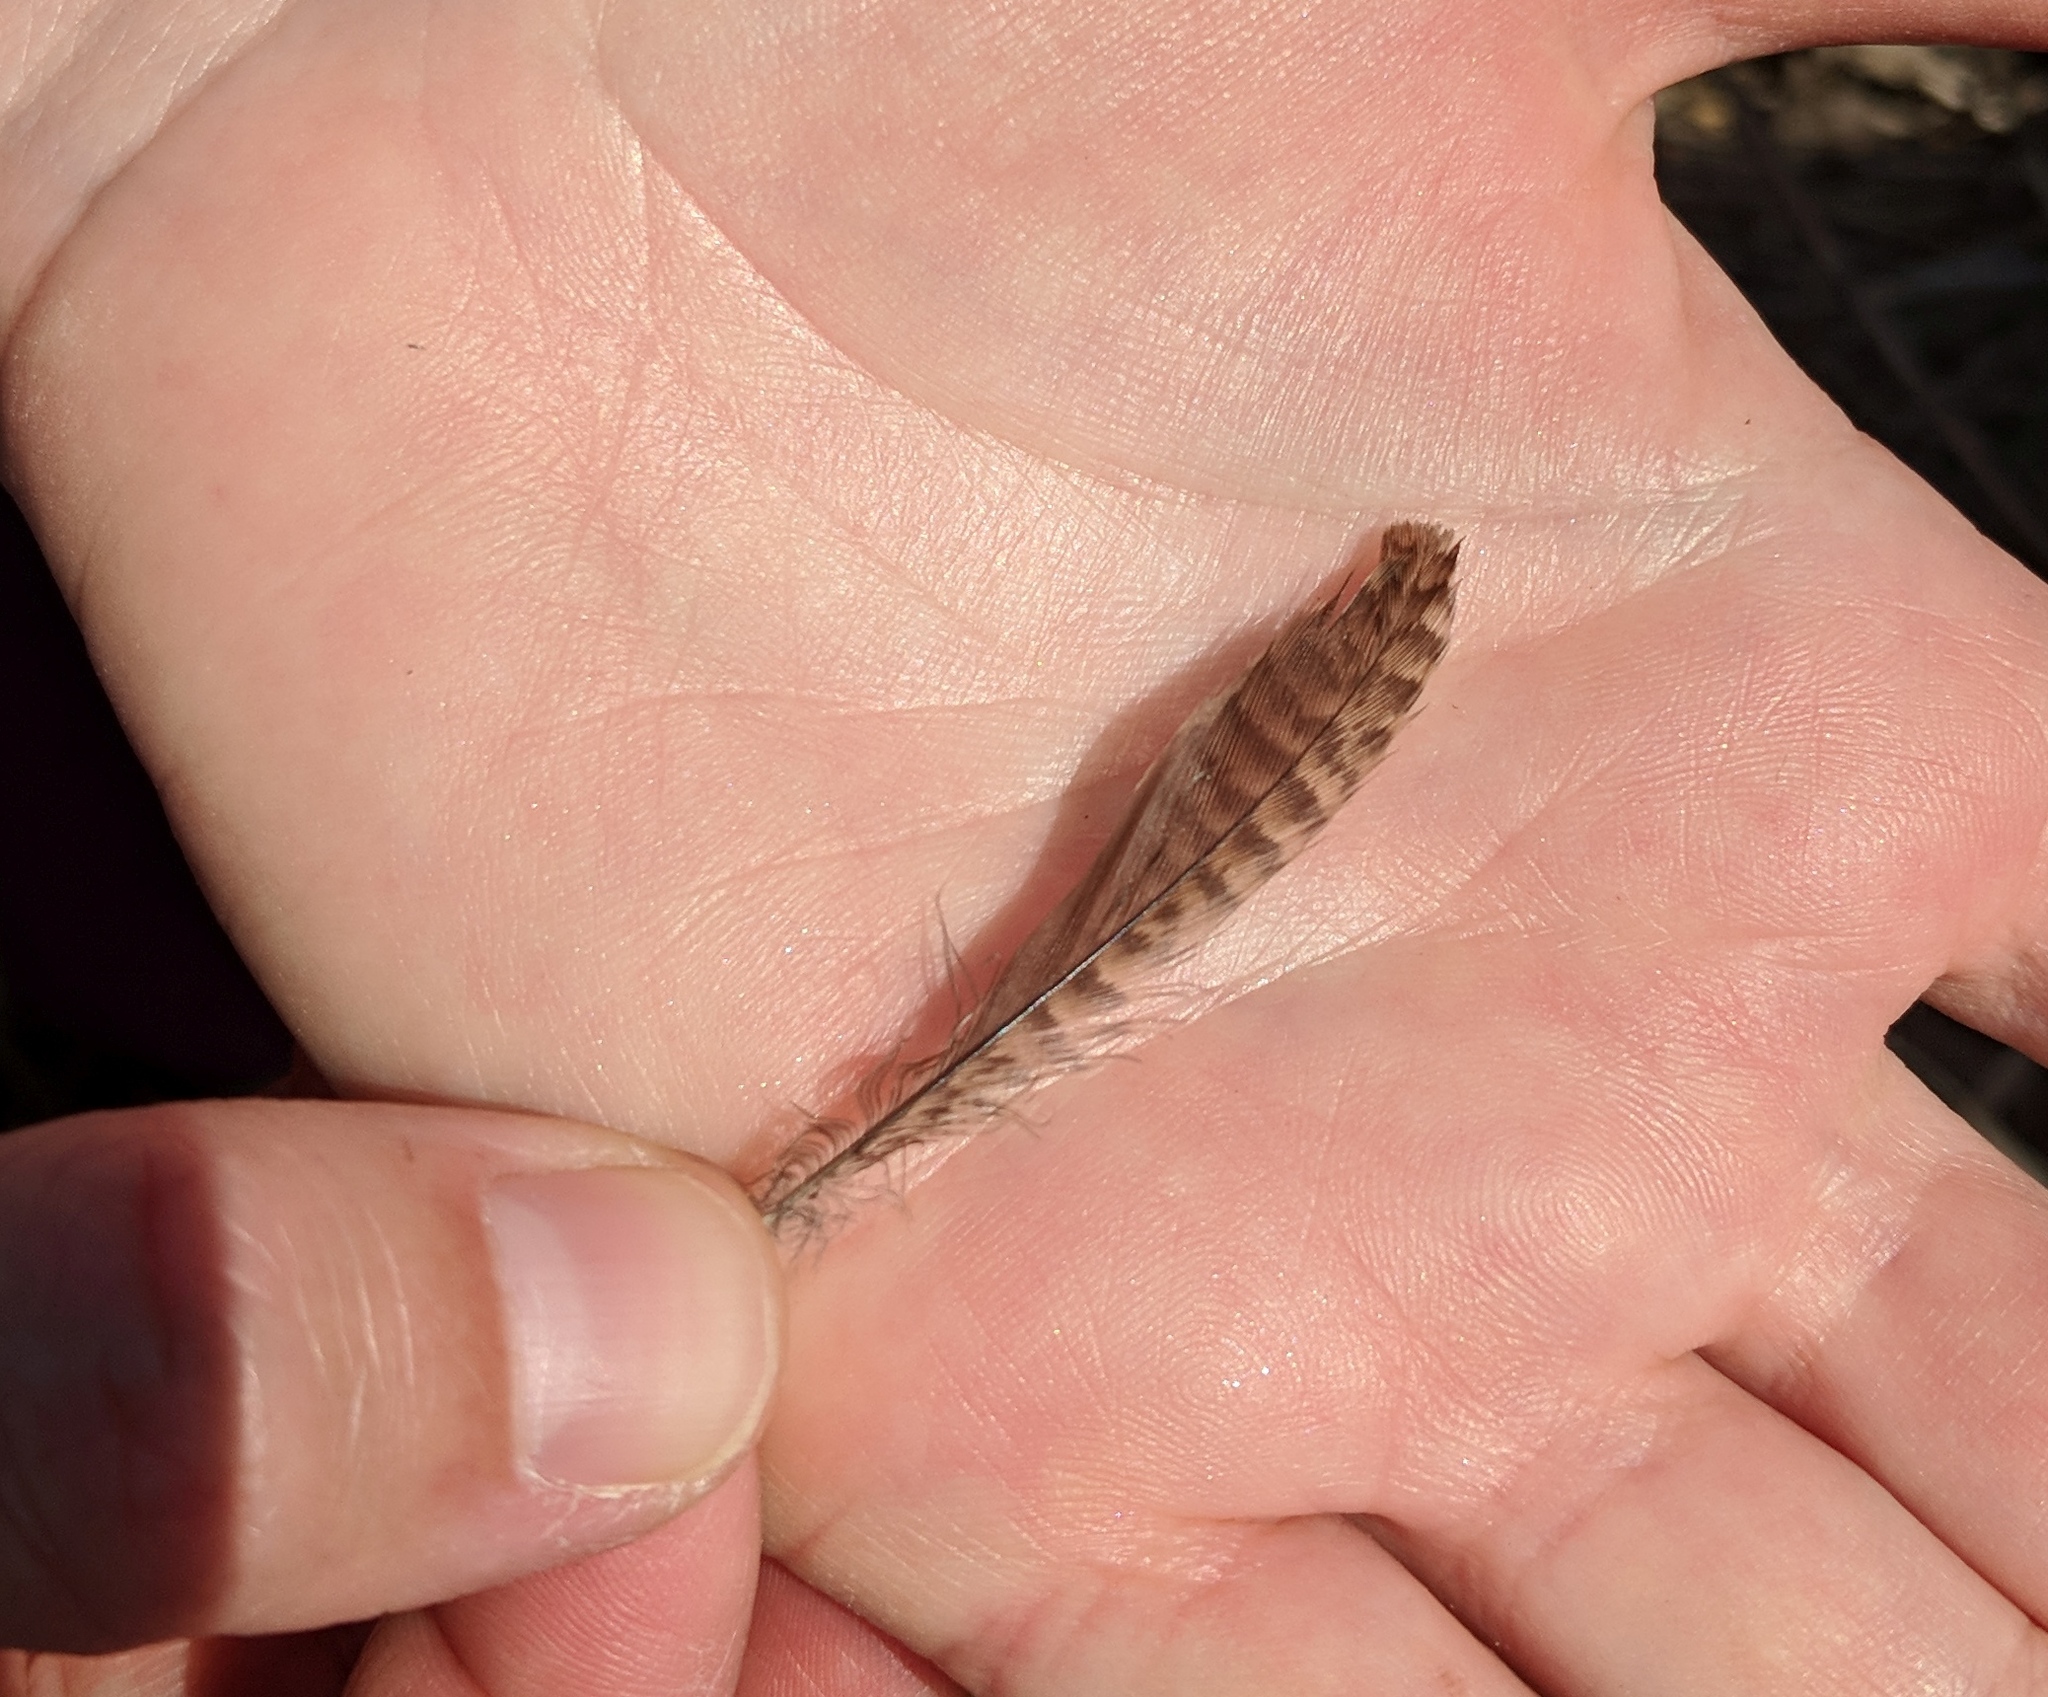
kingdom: Animalia
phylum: Chordata
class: Aves
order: Passeriformes
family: Troglodytidae
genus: Troglodytes
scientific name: Troglodytes aedon
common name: House wren
